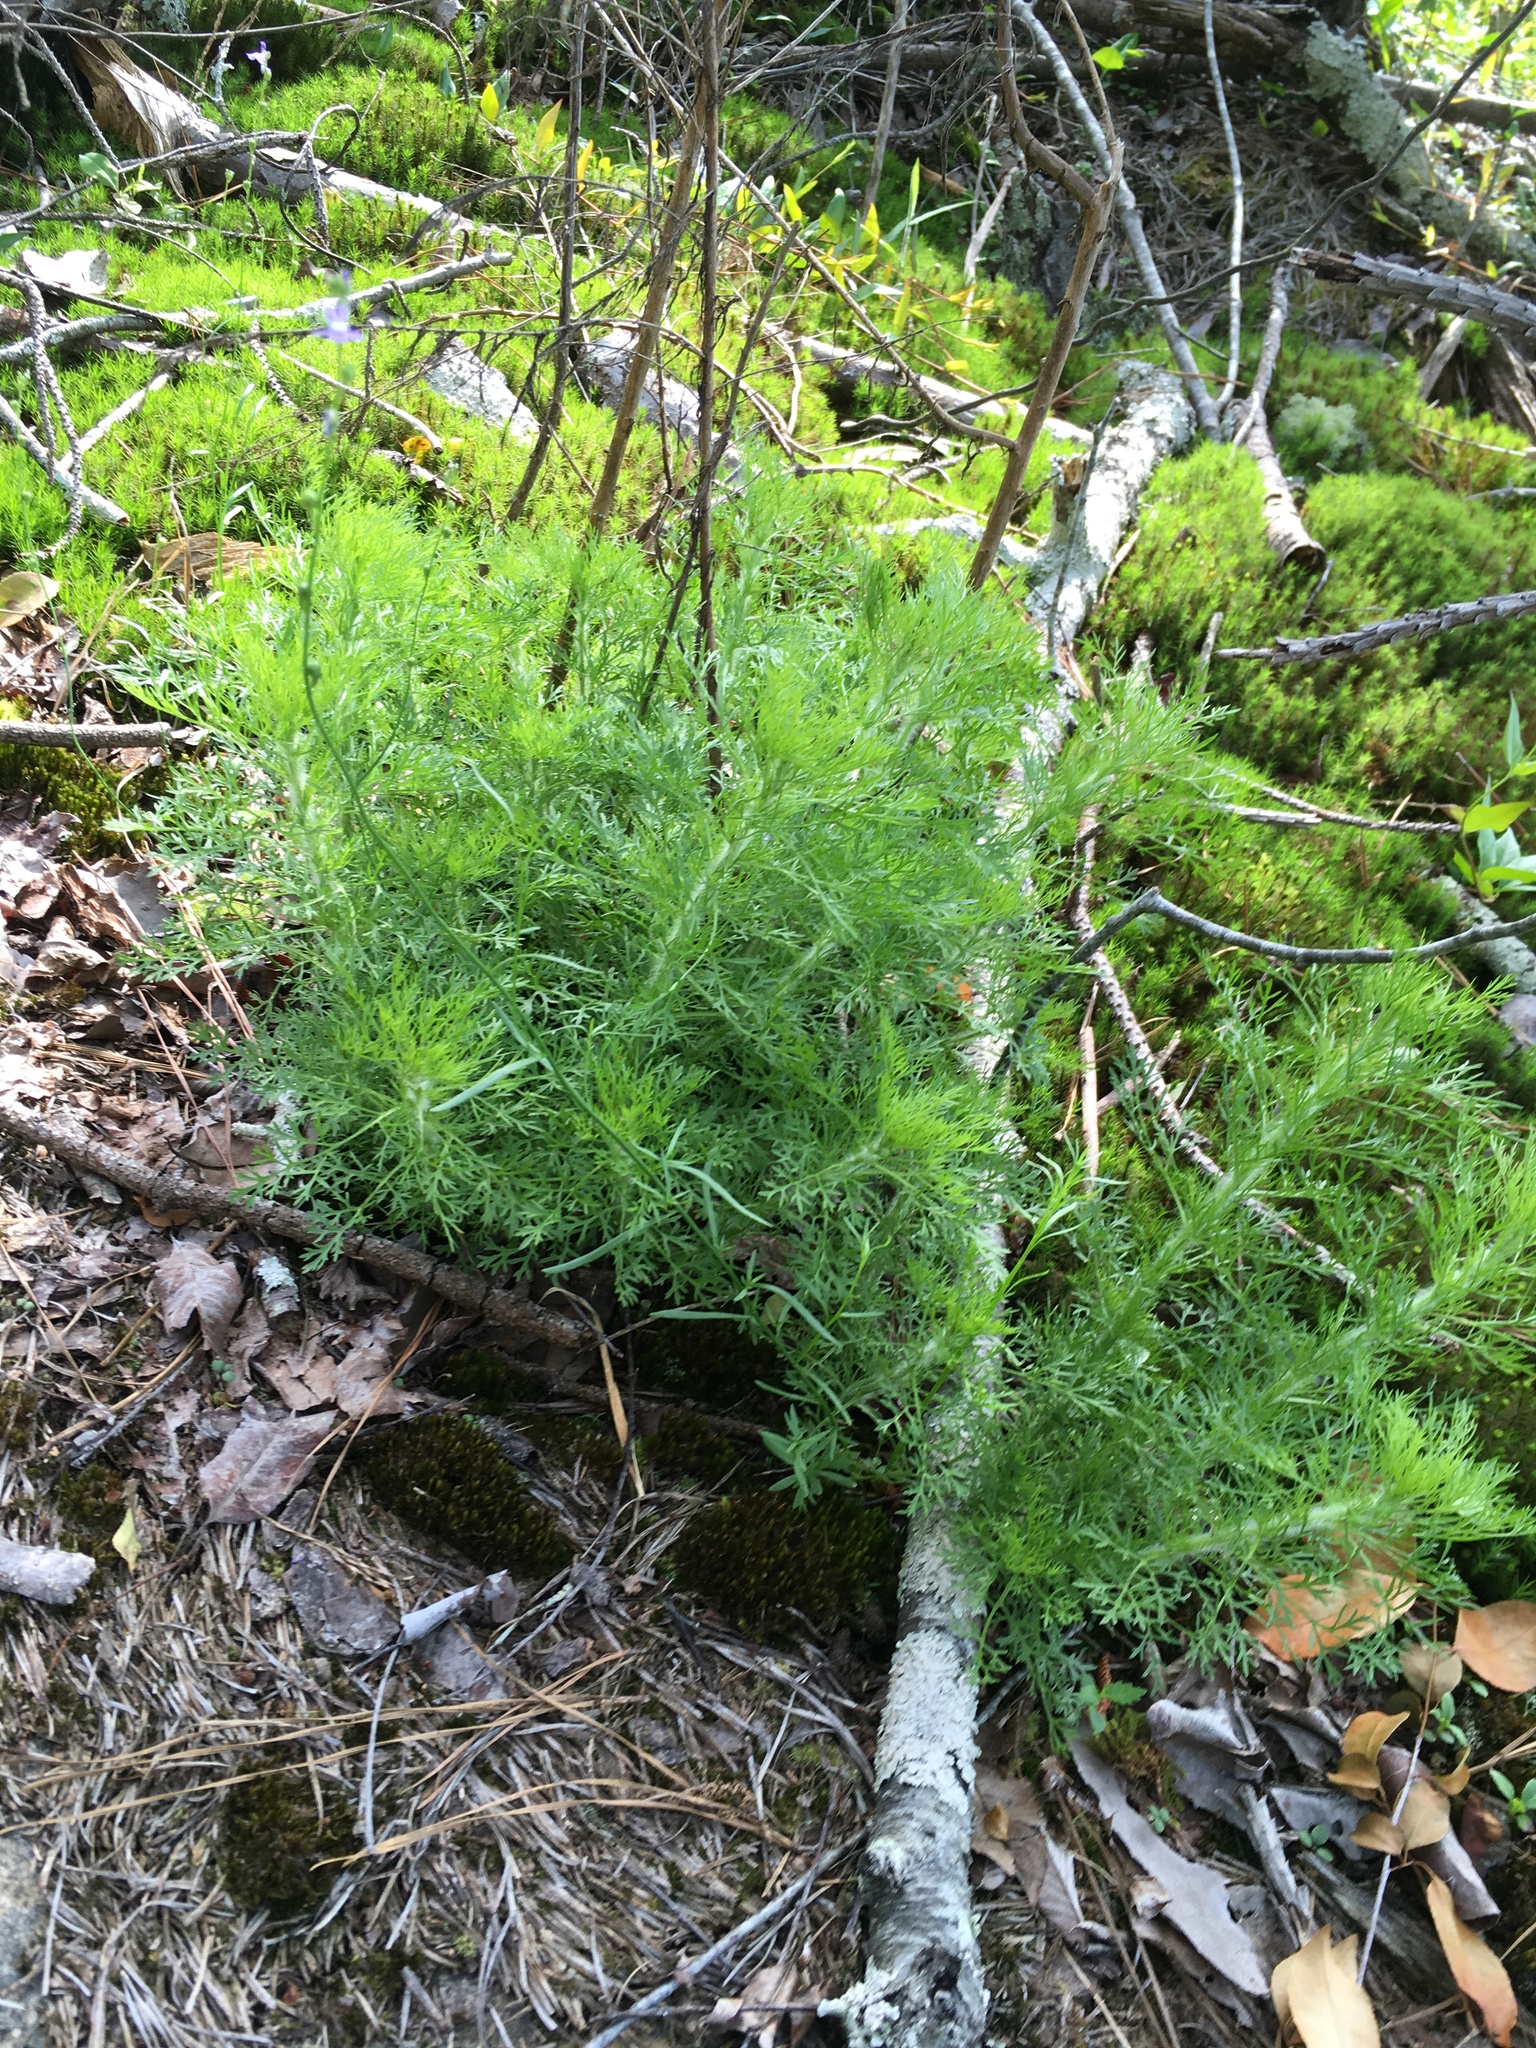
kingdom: Plantae
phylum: Tracheophyta
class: Magnoliopsida
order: Asterales
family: Asteraceae
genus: Eupatorium
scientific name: Eupatorium capillifolium
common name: Dog-fennel
